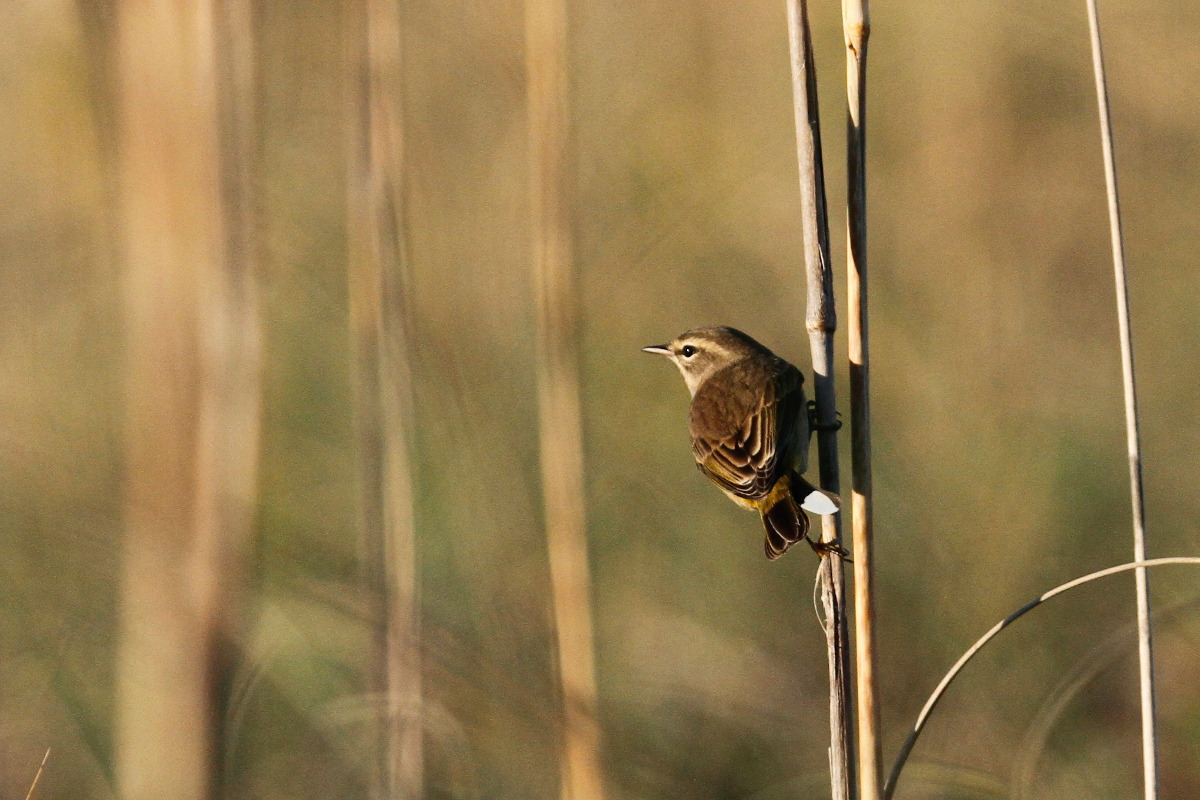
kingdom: Animalia
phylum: Chordata
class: Aves
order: Passeriformes
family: Parulidae
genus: Setophaga
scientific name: Setophaga palmarum
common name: Palm warbler
